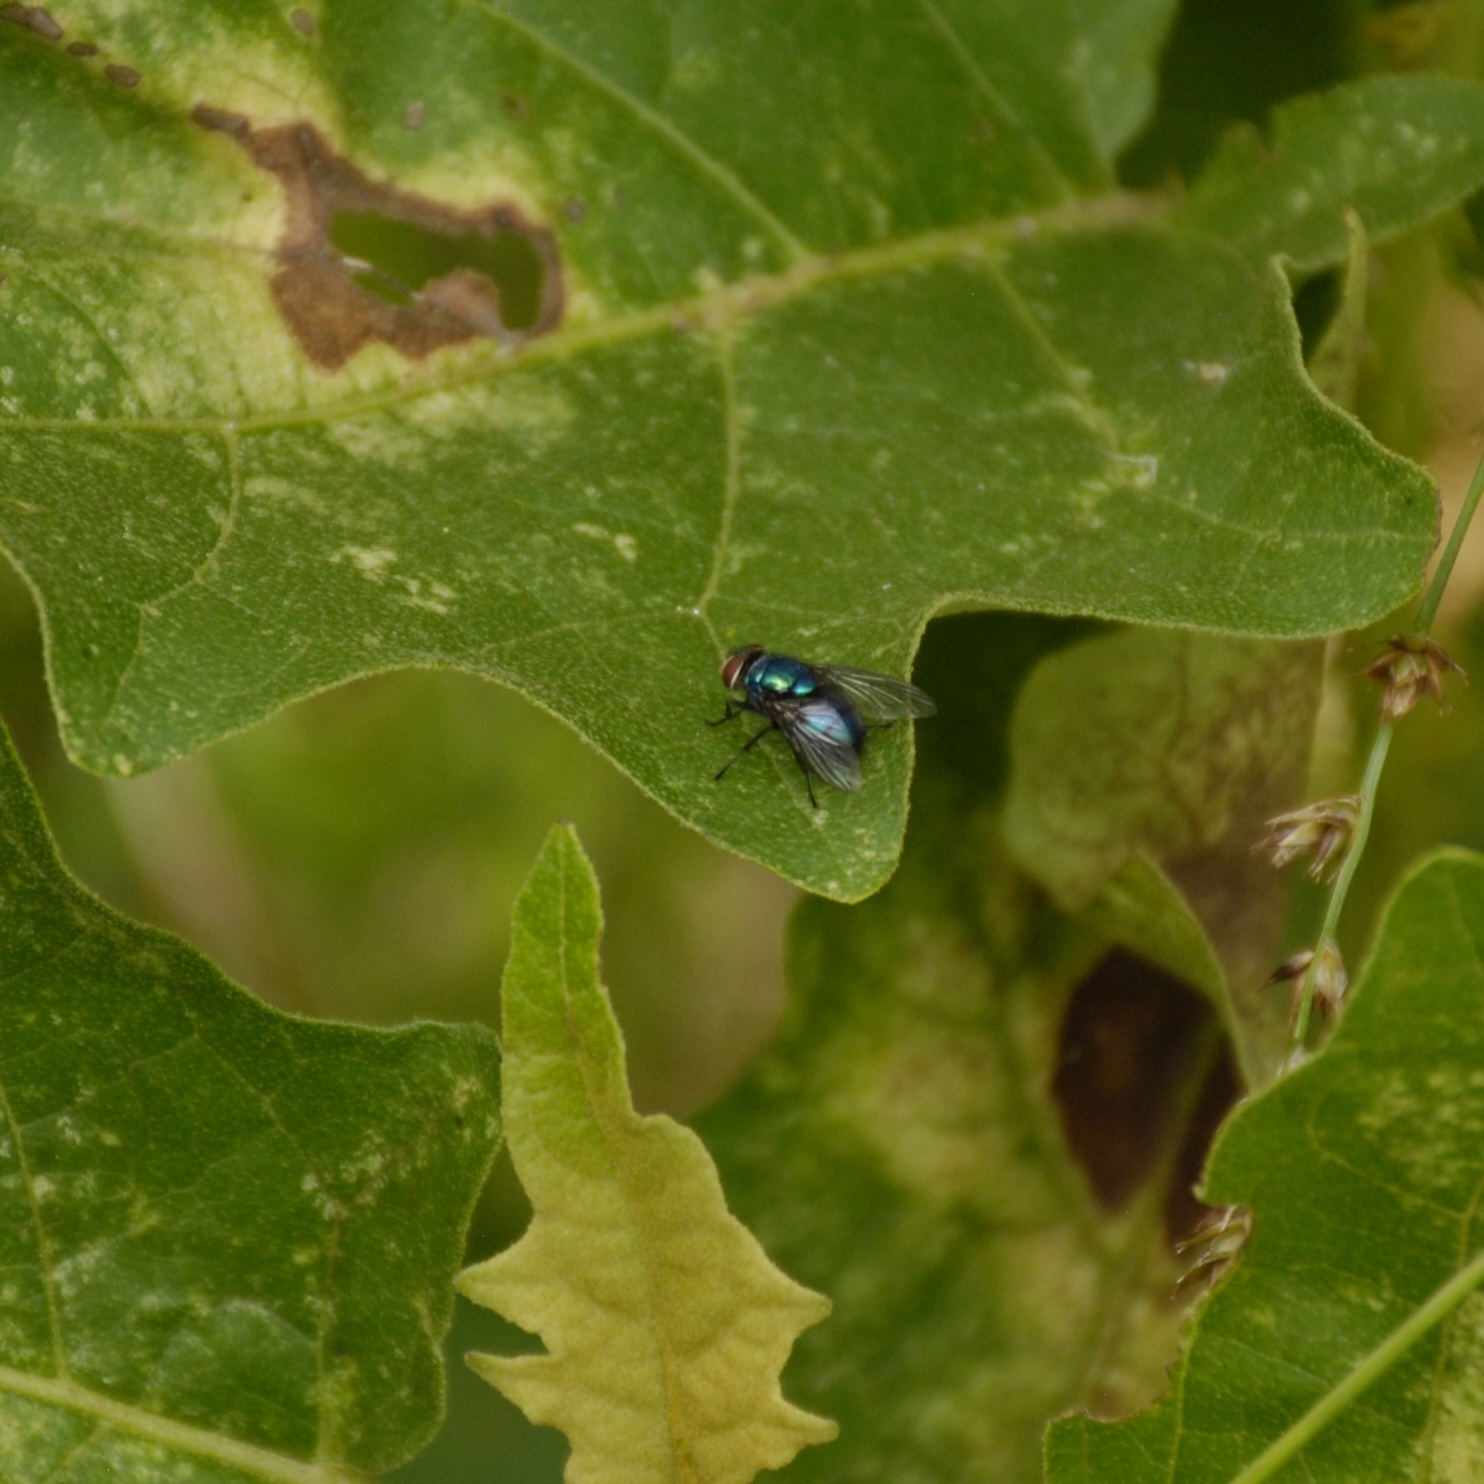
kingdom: Animalia
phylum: Arthropoda
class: Insecta
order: Diptera
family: Calliphoridae
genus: Lucilia
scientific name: Lucilia eximia
